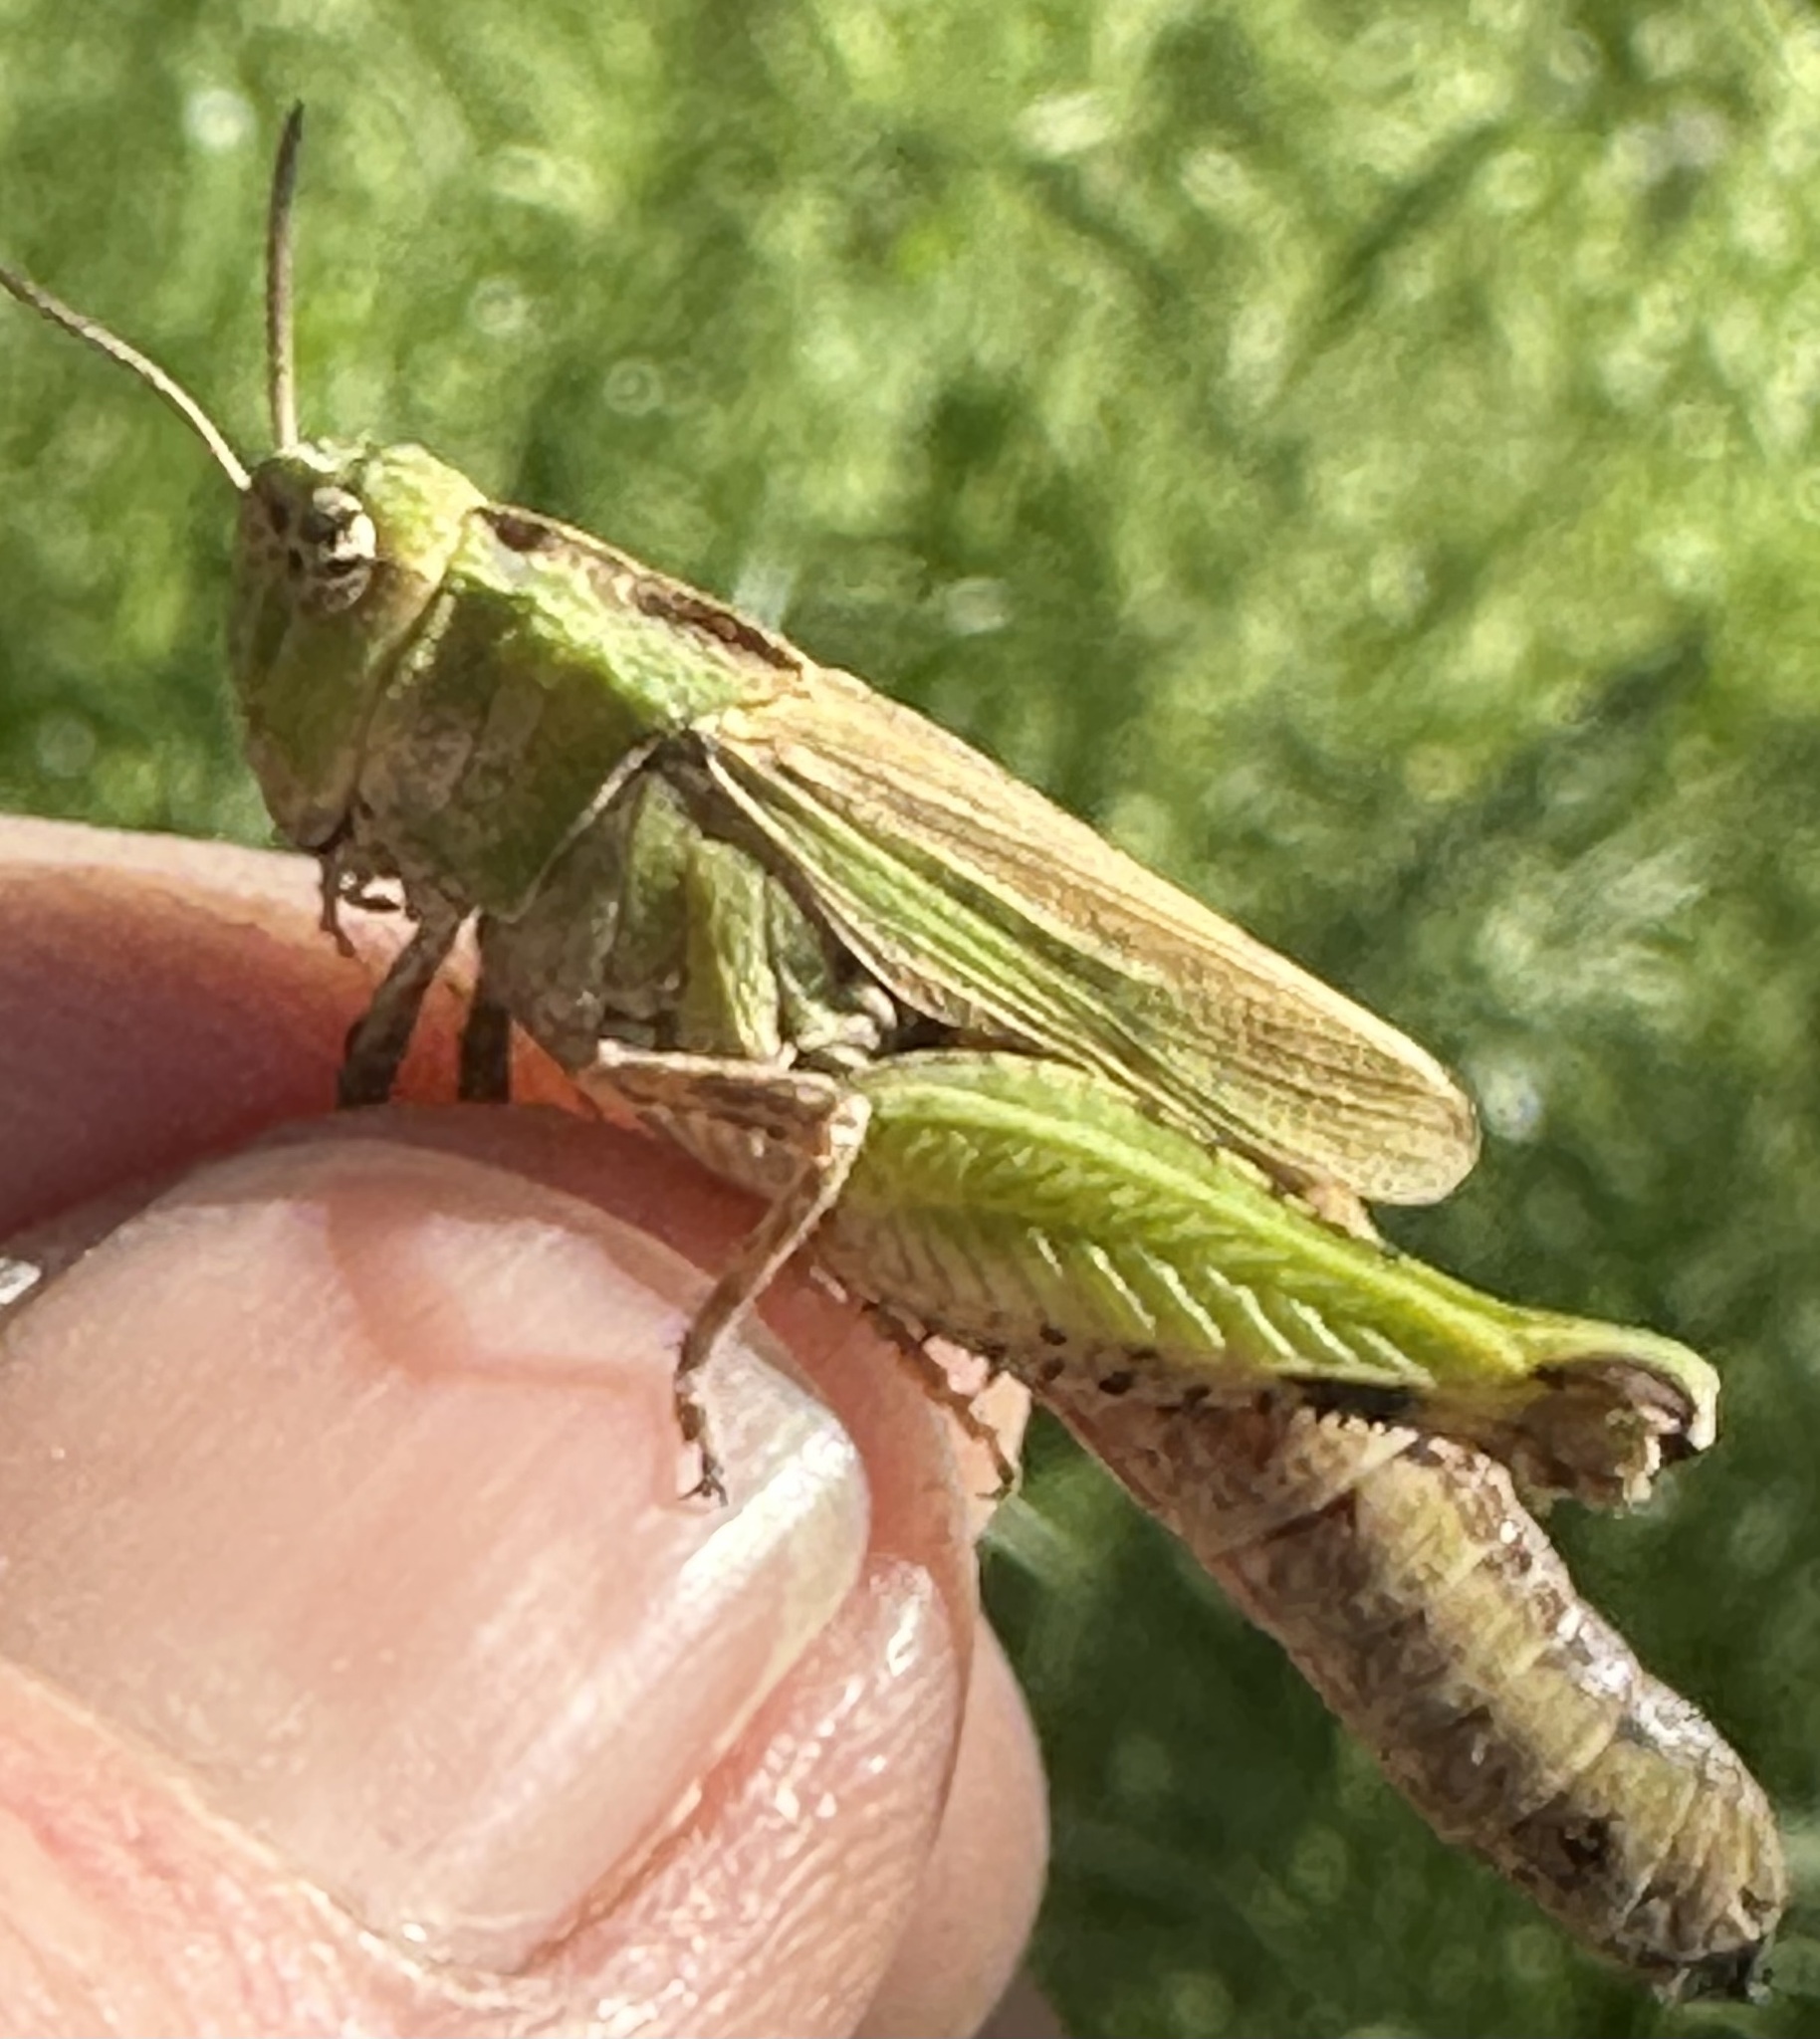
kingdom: Animalia
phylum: Arthropoda
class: Insecta
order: Orthoptera
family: Acrididae
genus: Chimarocephala
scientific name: Chimarocephala pacifica
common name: Painted meadow grasshopper
